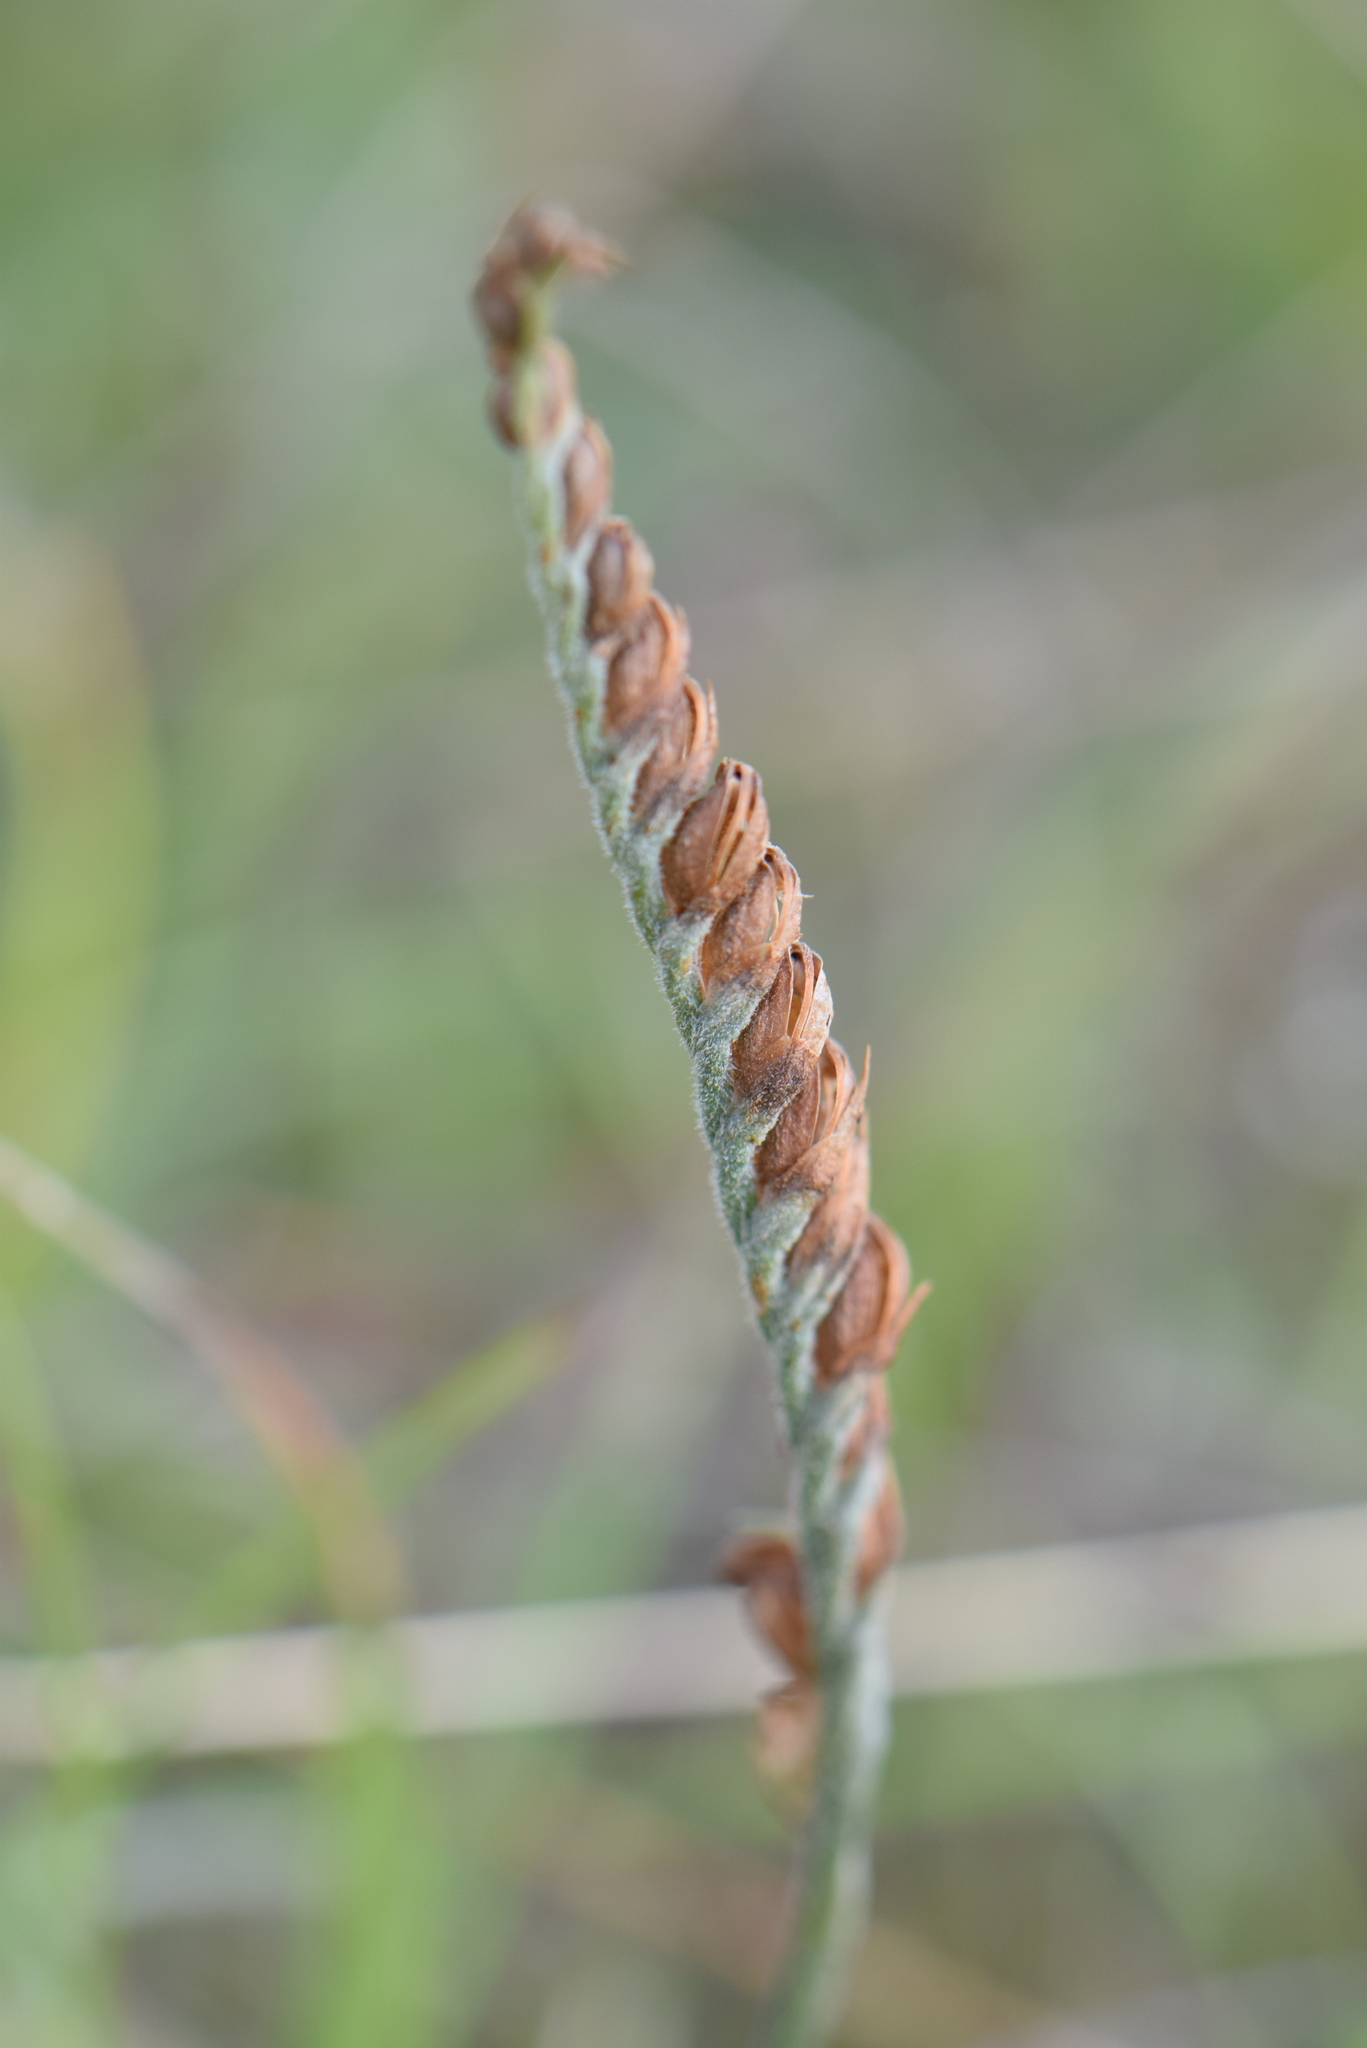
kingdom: Plantae
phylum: Tracheophyta
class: Liliopsida
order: Asparagales
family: Orchidaceae
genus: Spiranthes
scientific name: Spiranthes spiralis
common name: Autumn lady's-tresses
